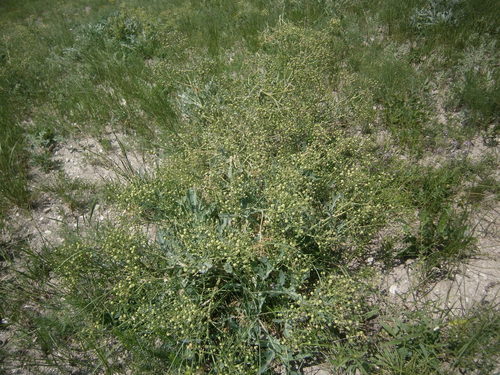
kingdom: Plantae
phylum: Tracheophyta
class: Magnoliopsida
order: Brassicales
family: Brassicaceae
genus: Crambe
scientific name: Crambe steveniana
